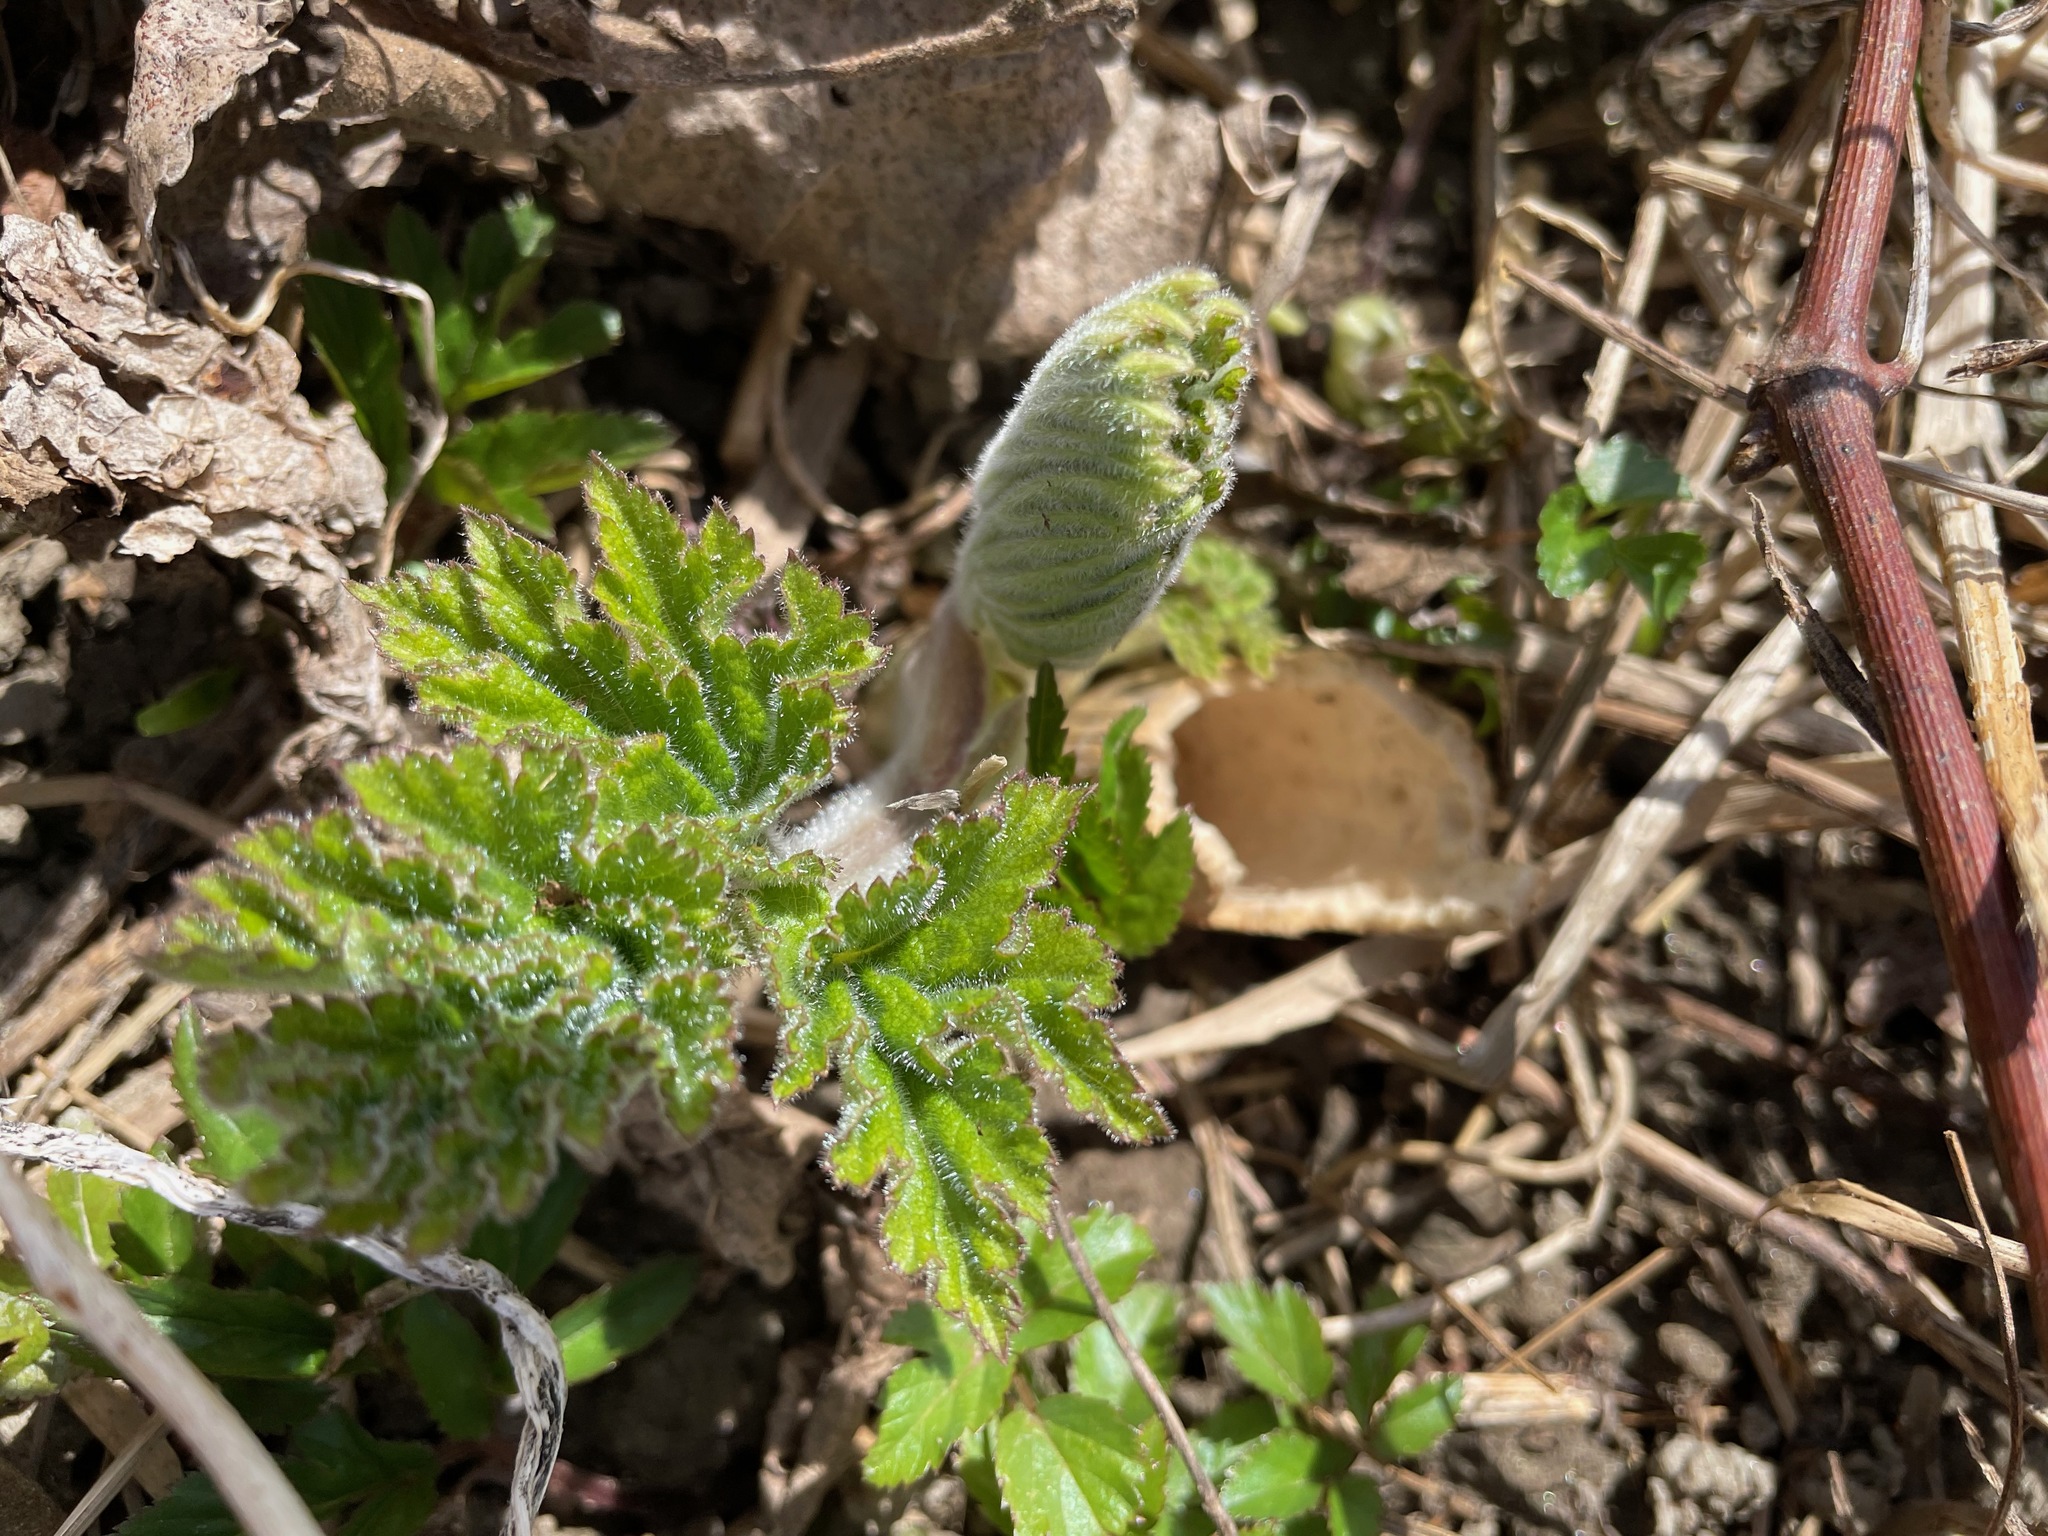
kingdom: Plantae
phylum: Tracheophyta
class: Magnoliopsida
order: Apiales
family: Apiaceae
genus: Heracleum
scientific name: Heracleum maximum
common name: American cow parsnip
